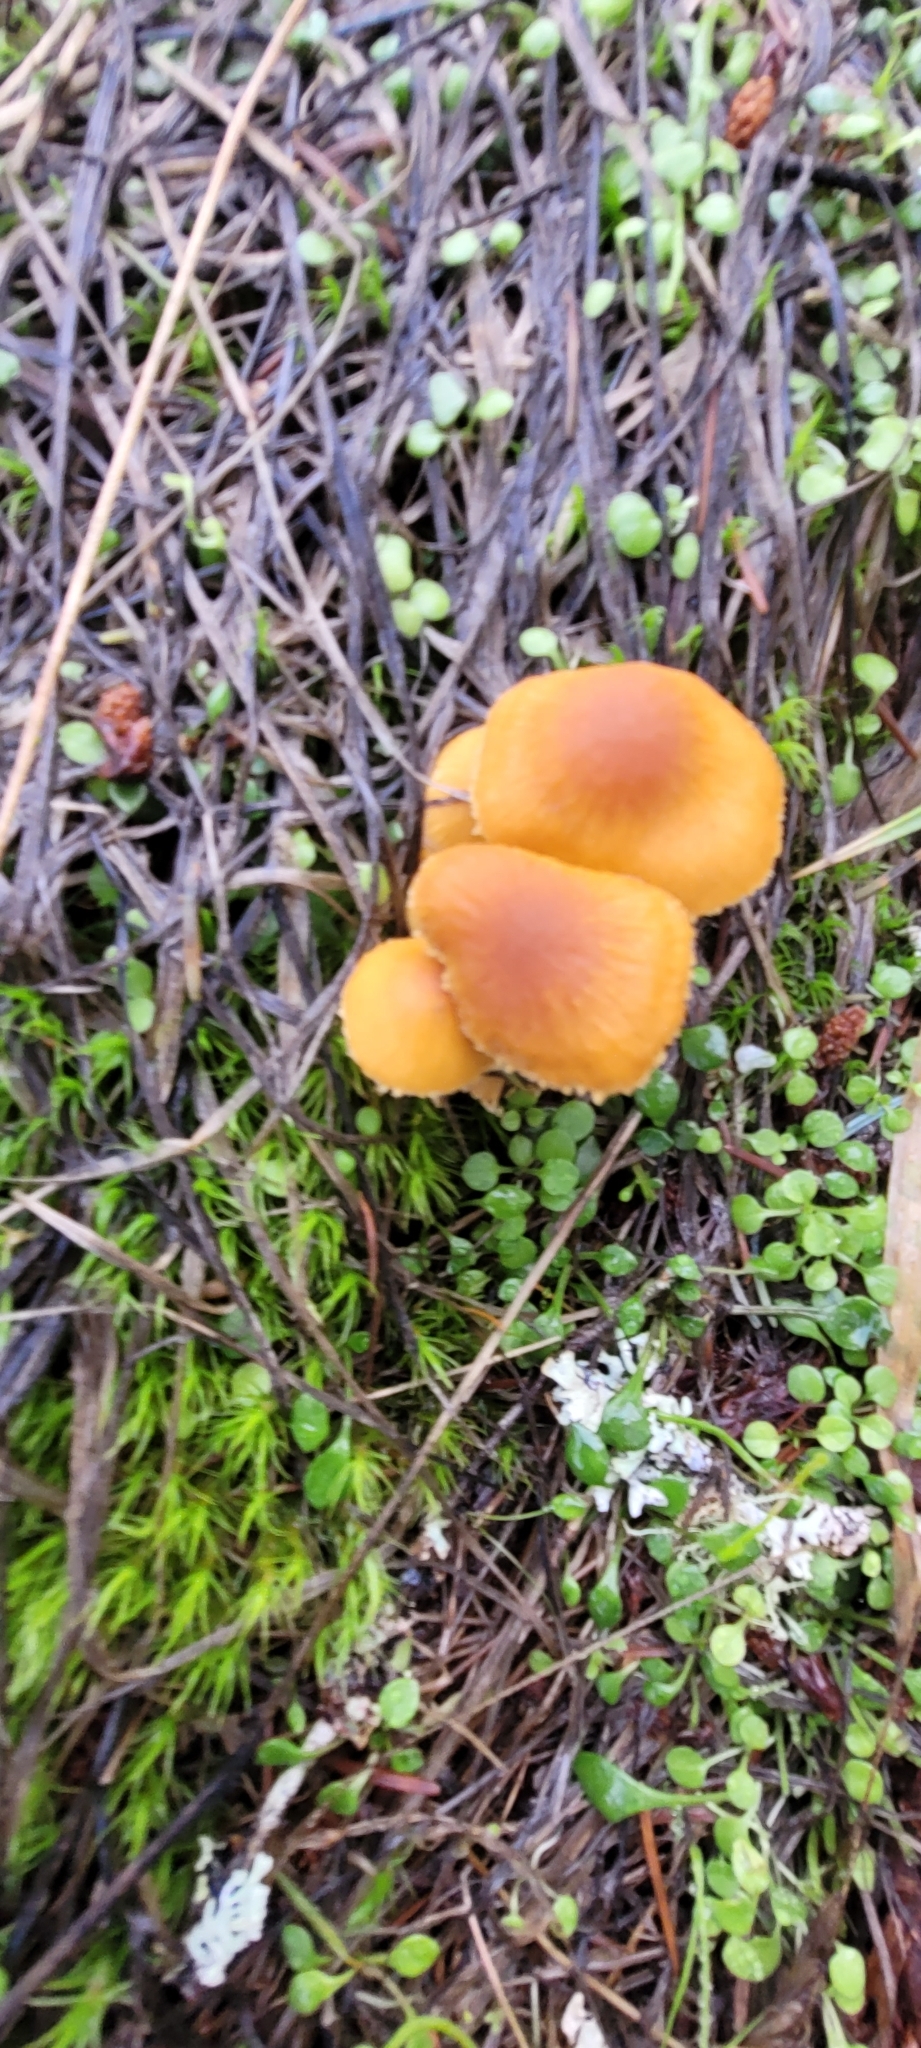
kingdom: Fungi
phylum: Basidiomycota
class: Agaricomycetes
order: Agaricales
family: Tricholomataceae
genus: Cystoderma
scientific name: Cystoderma amianthinum
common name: Earthy powdercap
